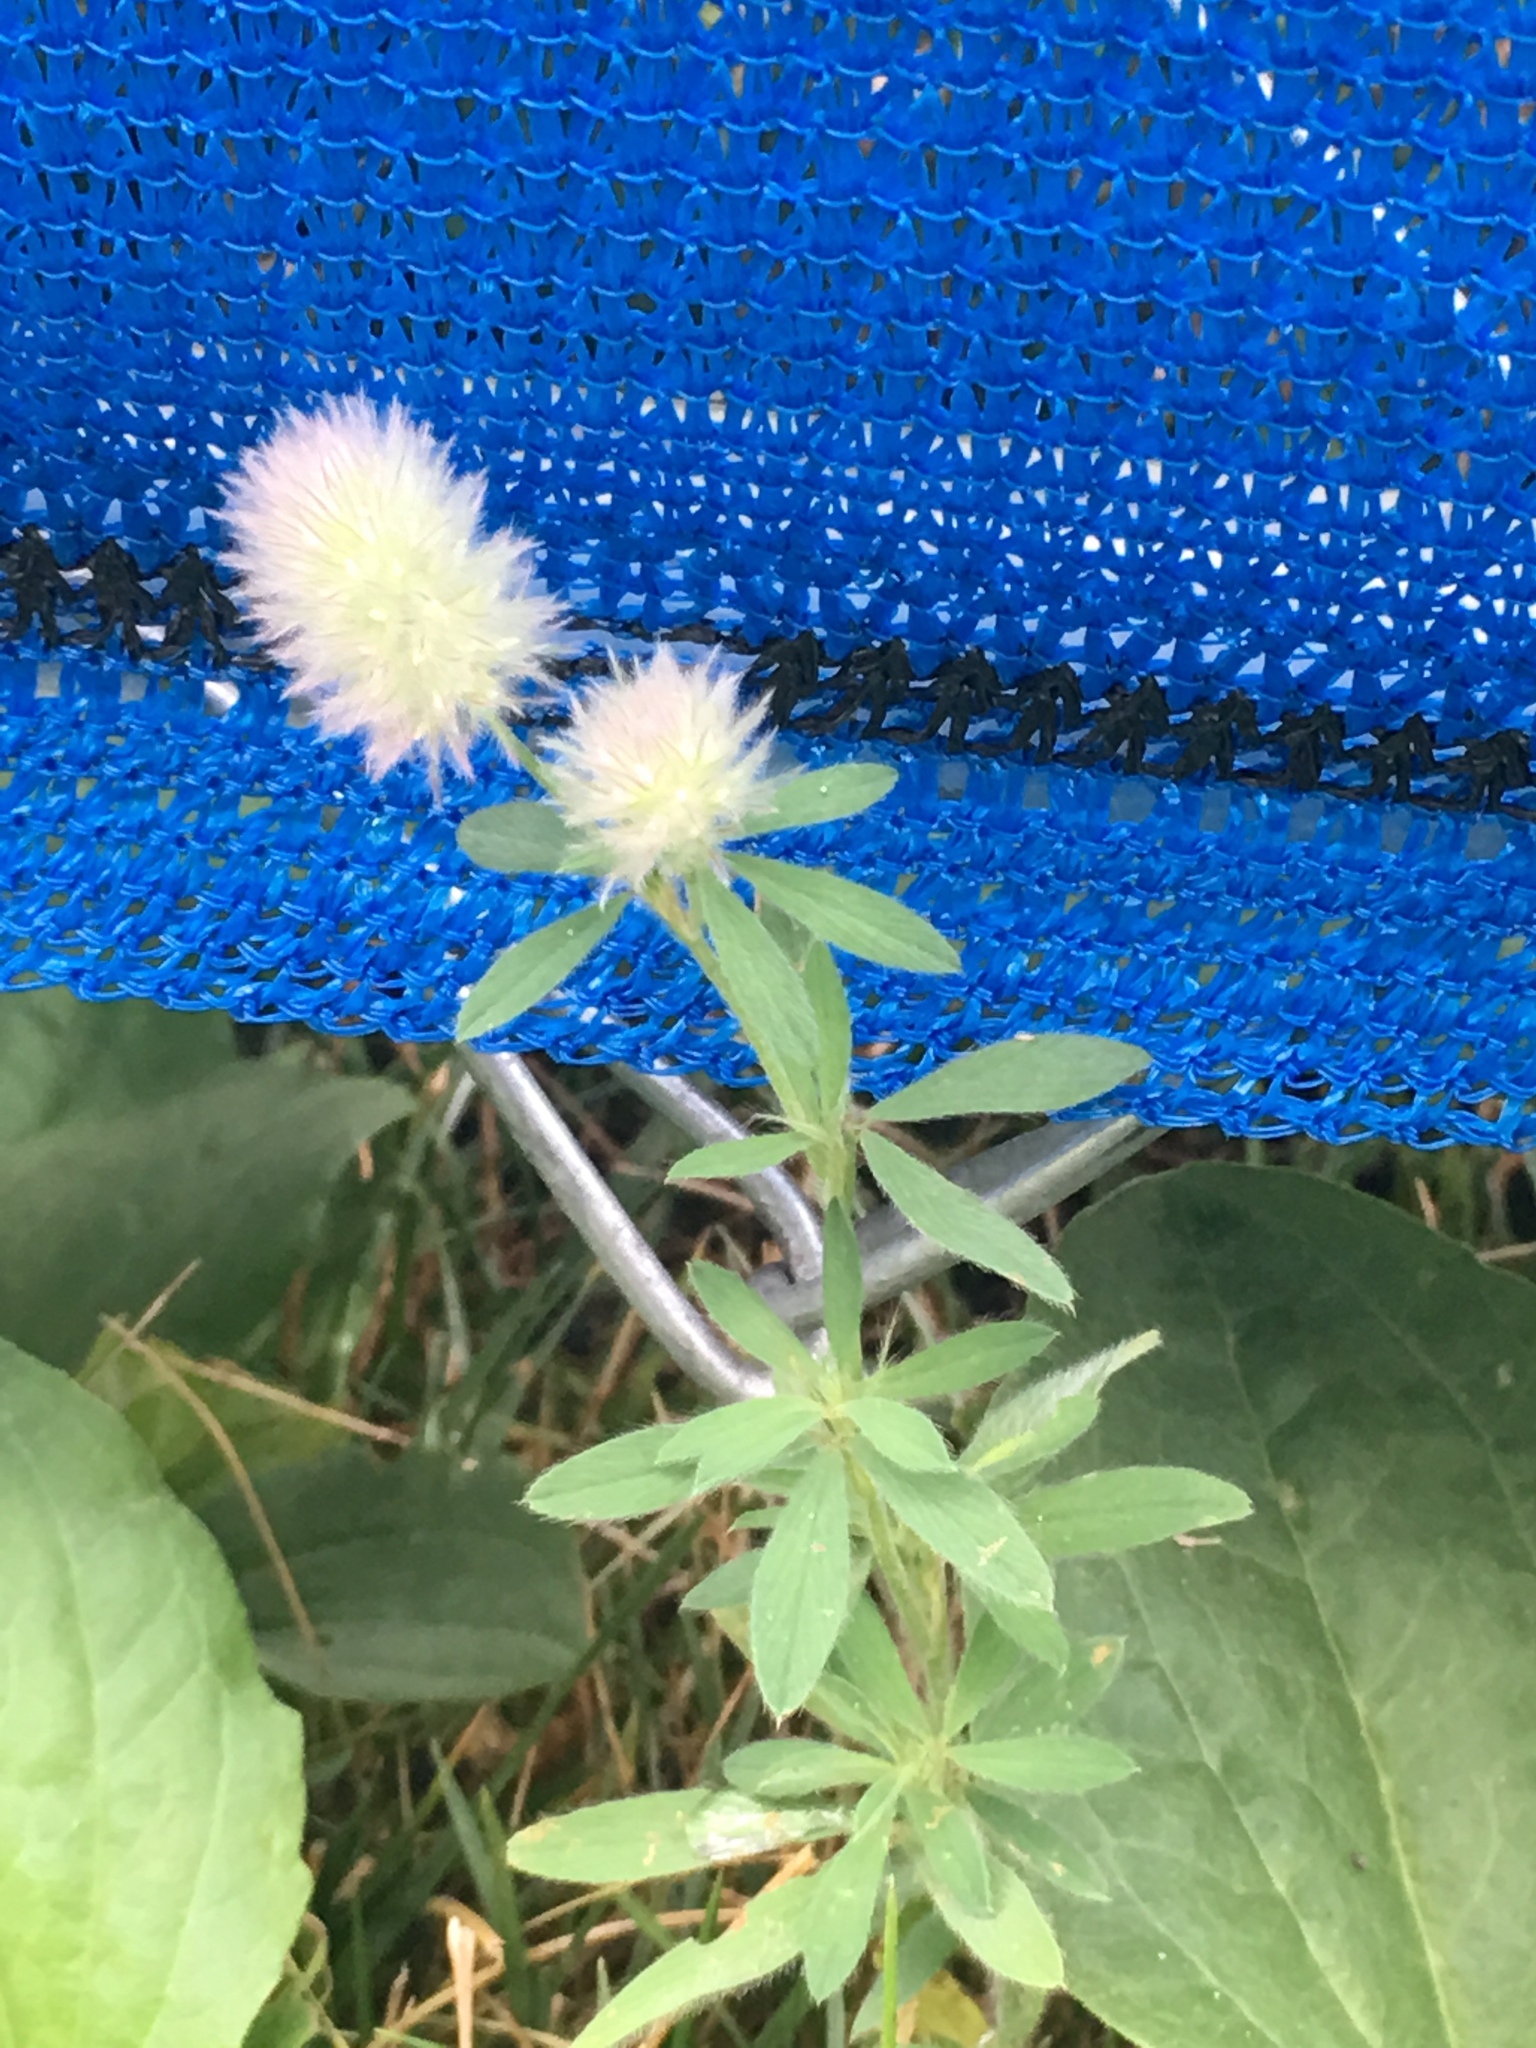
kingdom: Plantae
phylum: Tracheophyta
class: Magnoliopsida
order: Fabales
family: Fabaceae
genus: Trifolium
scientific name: Trifolium arvense
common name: Hare's-foot clover
